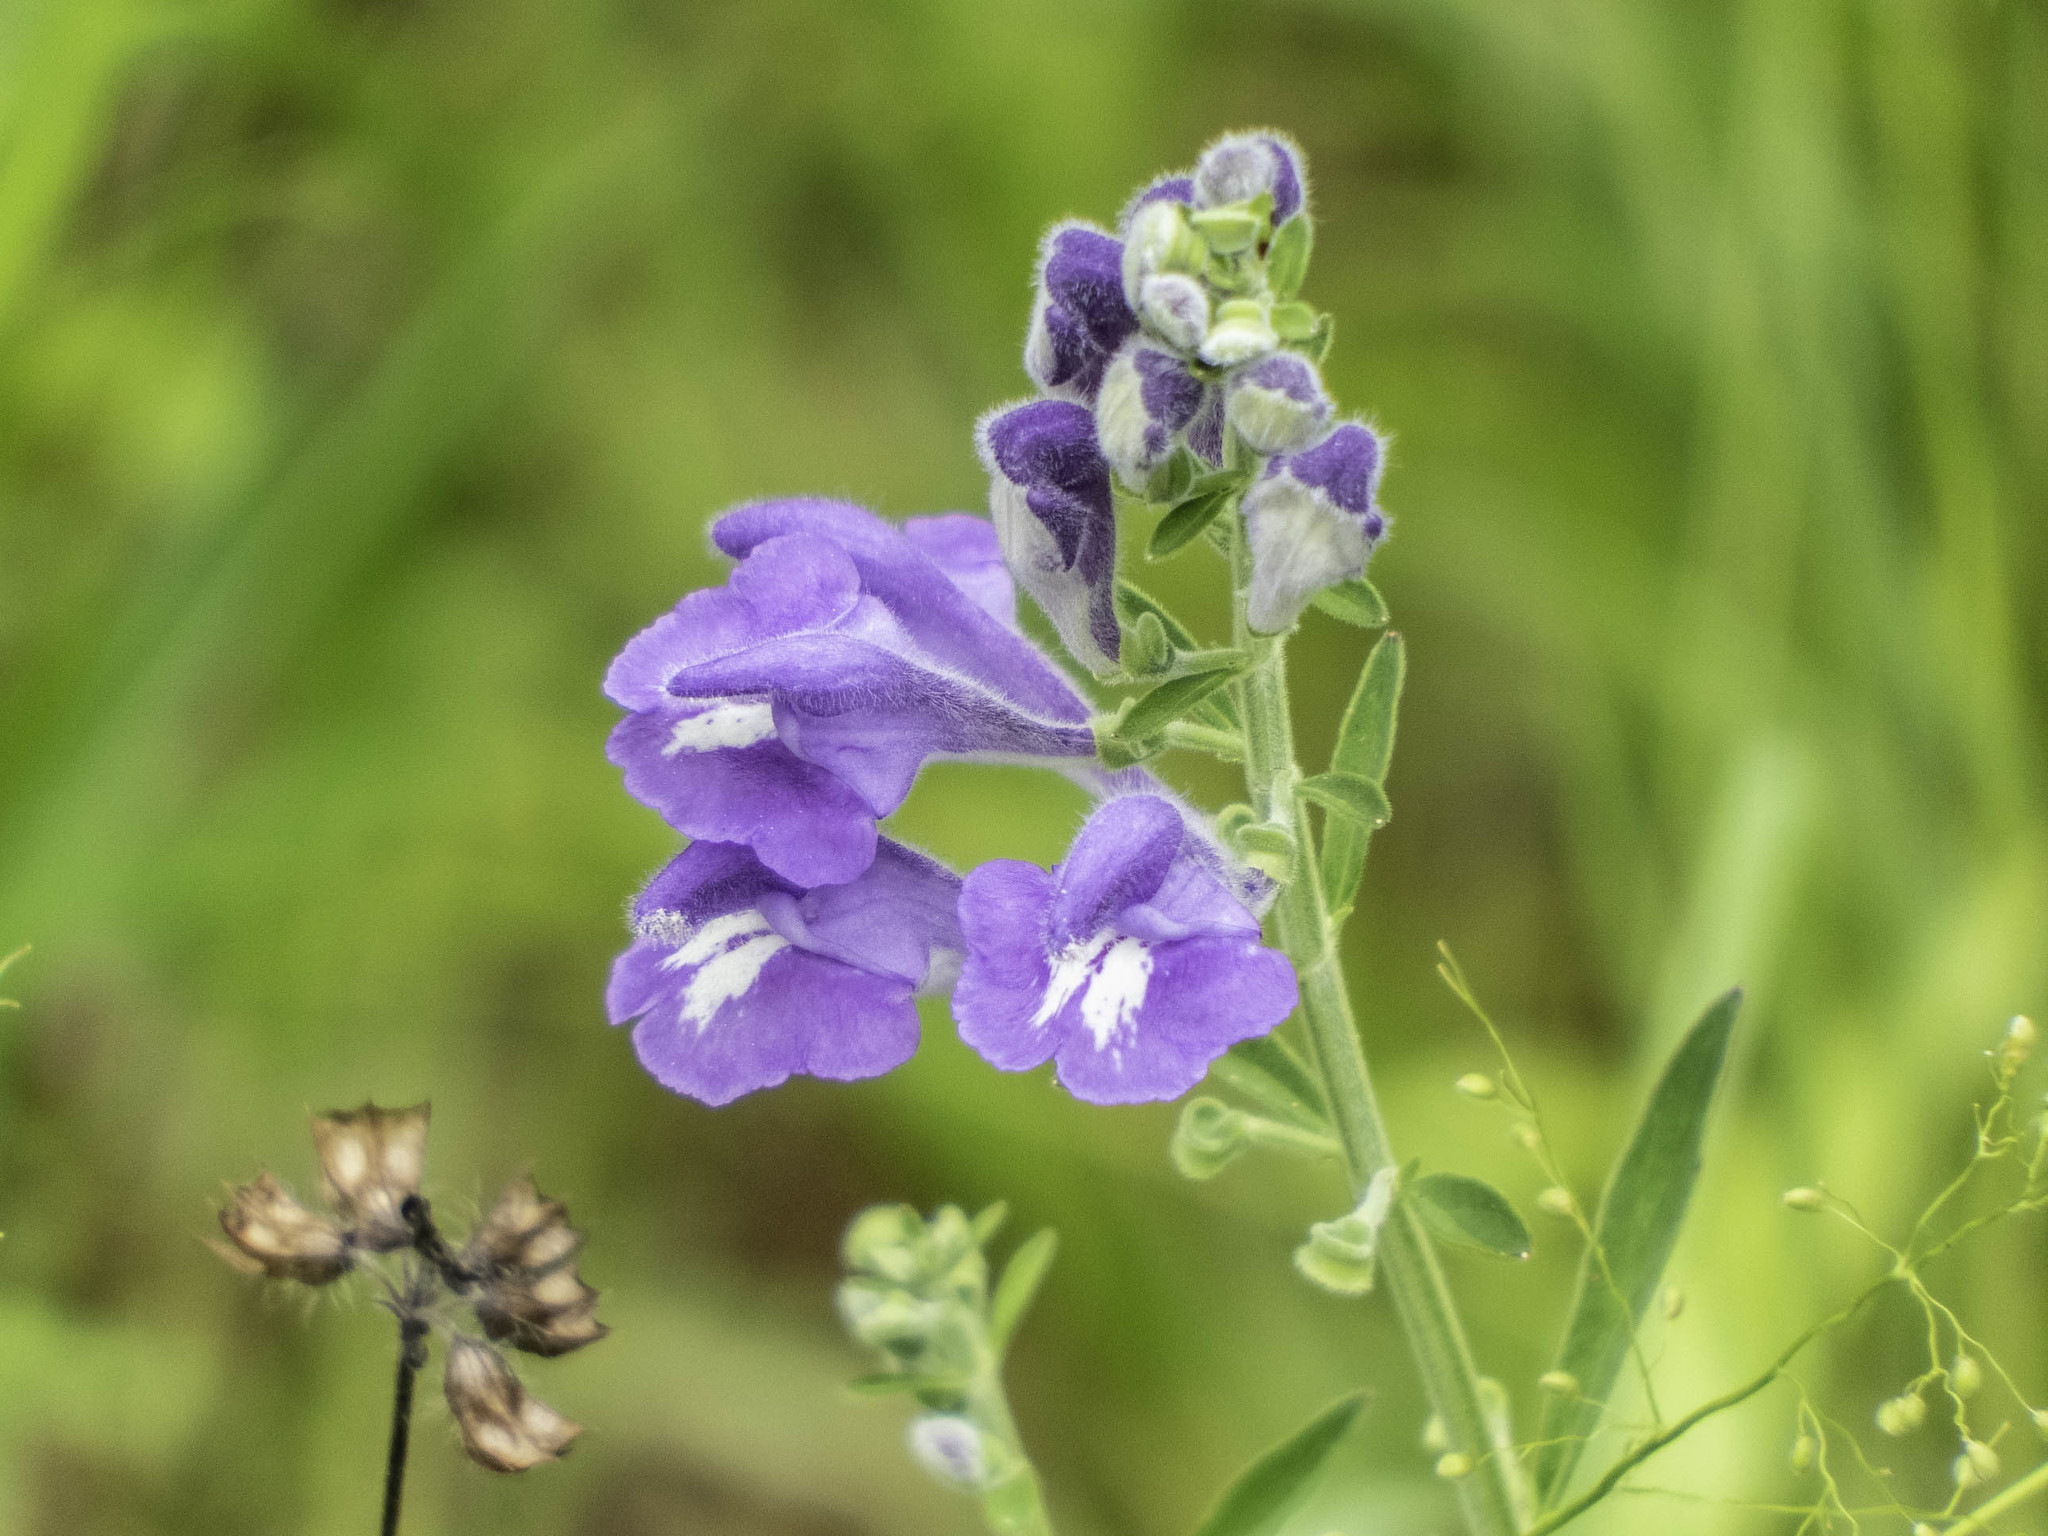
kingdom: Plantae
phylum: Tracheophyta
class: Magnoliopsida
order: Lamiales
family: Lamiaceae
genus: Scutellaria
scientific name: Scutellaria integrifolia
